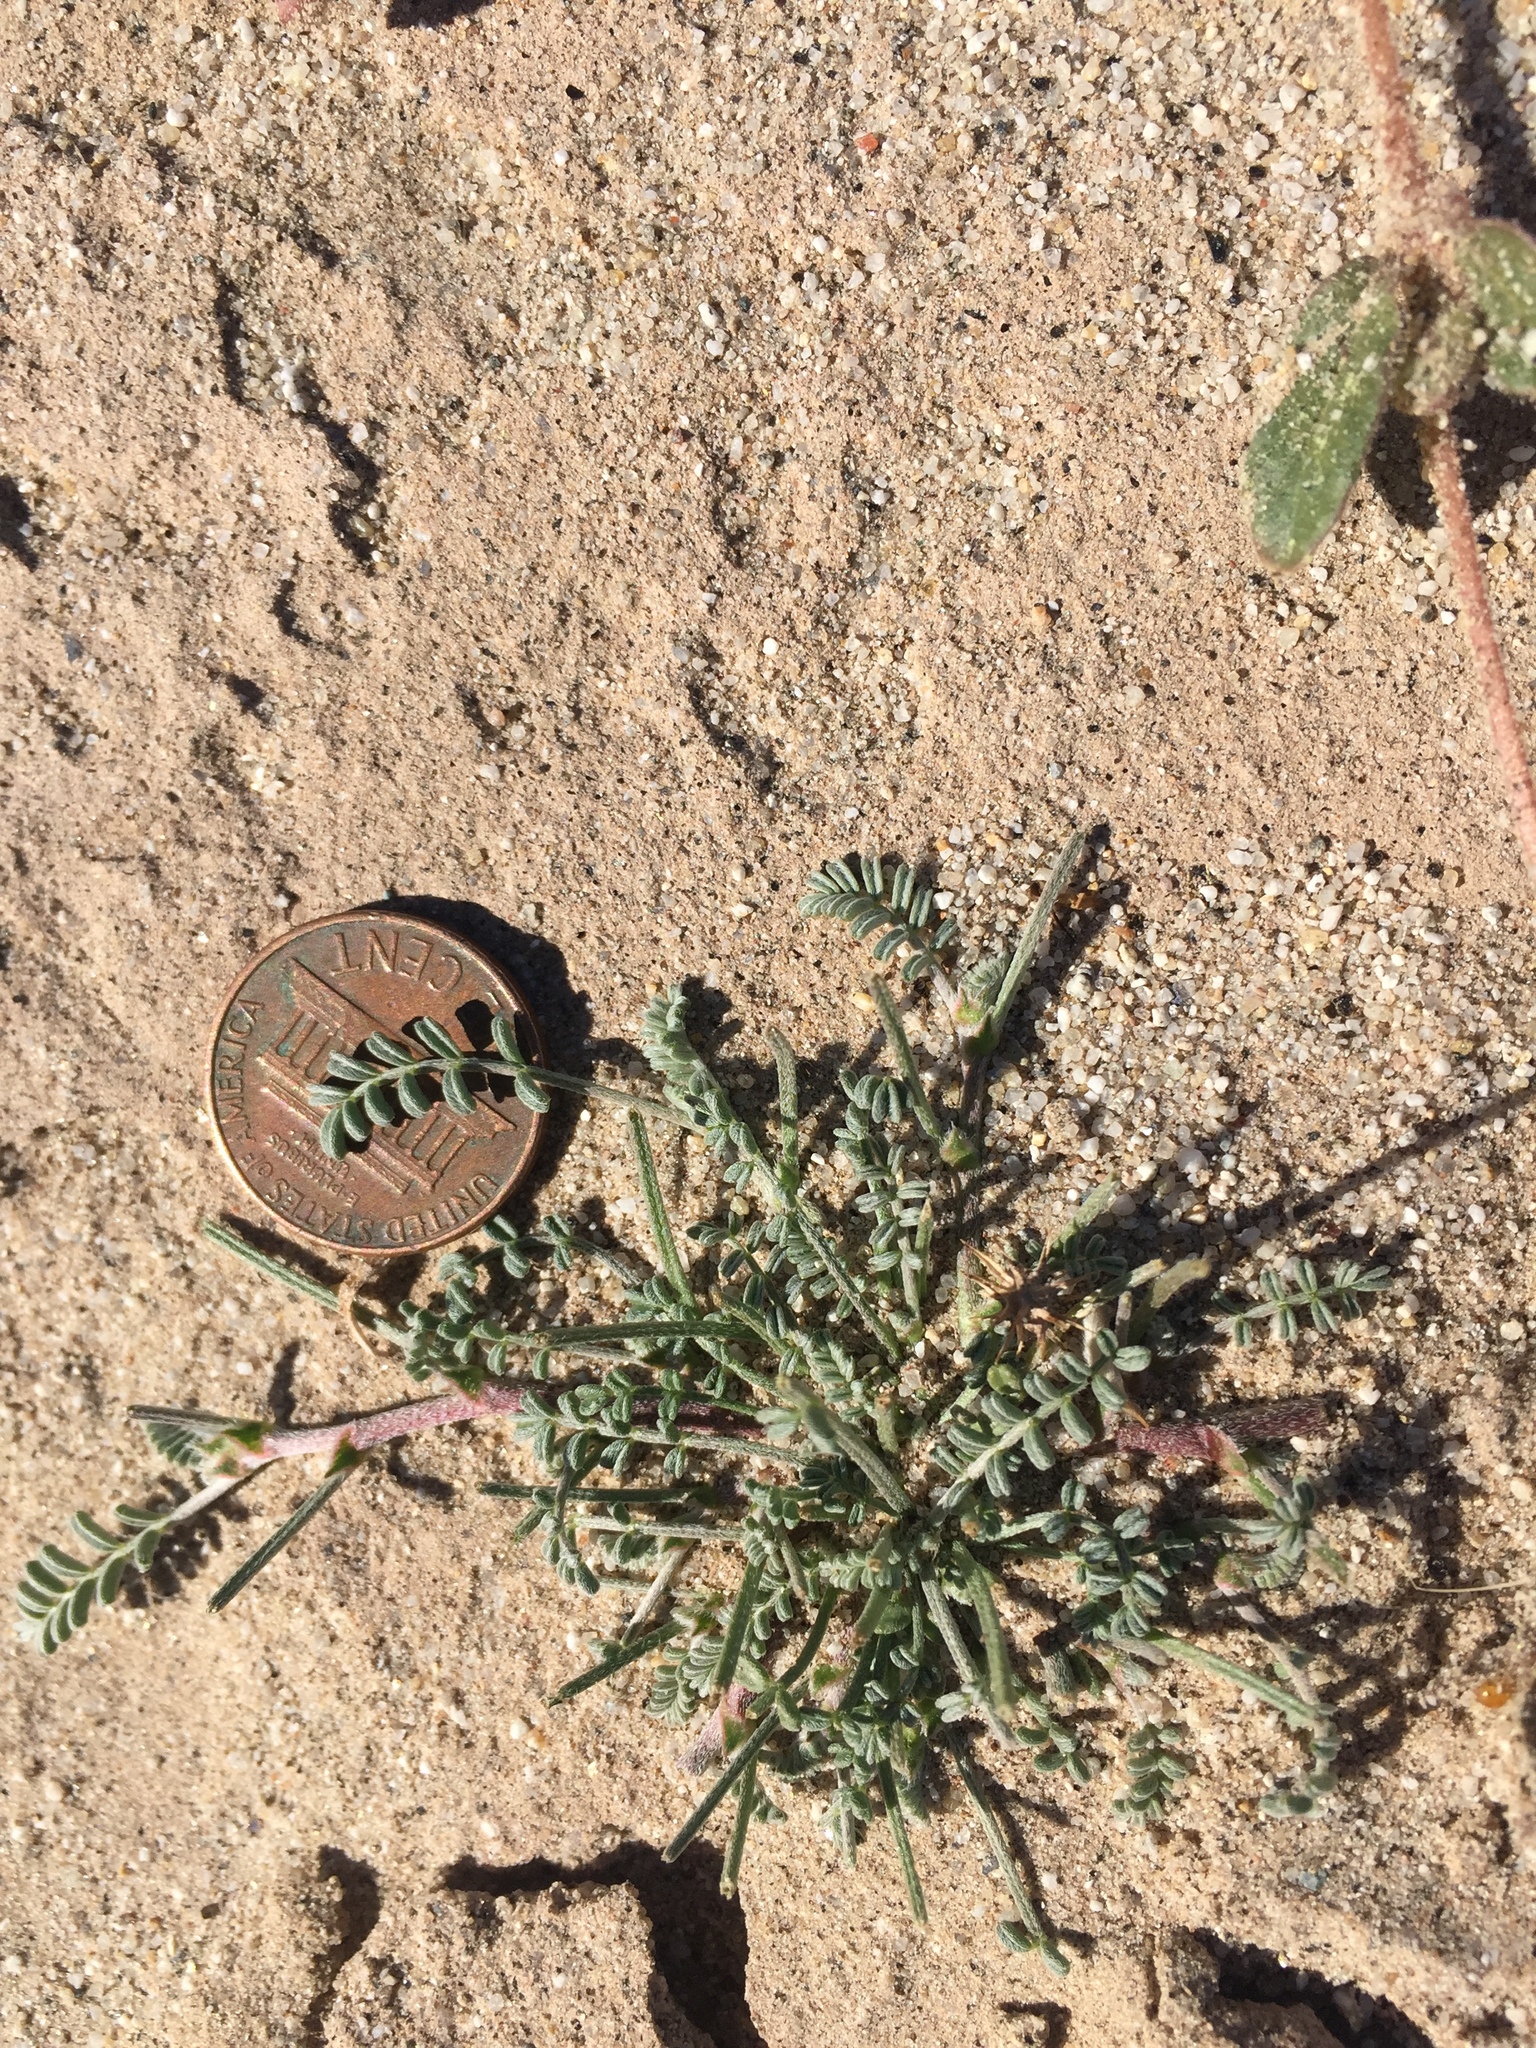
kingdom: Plantae
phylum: Tracheophyta
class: Magnoliopsida
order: Fabales
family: Fabaceae
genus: Astragalus
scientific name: Astragalus didymocarpus
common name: Dwarf white milkvetch
